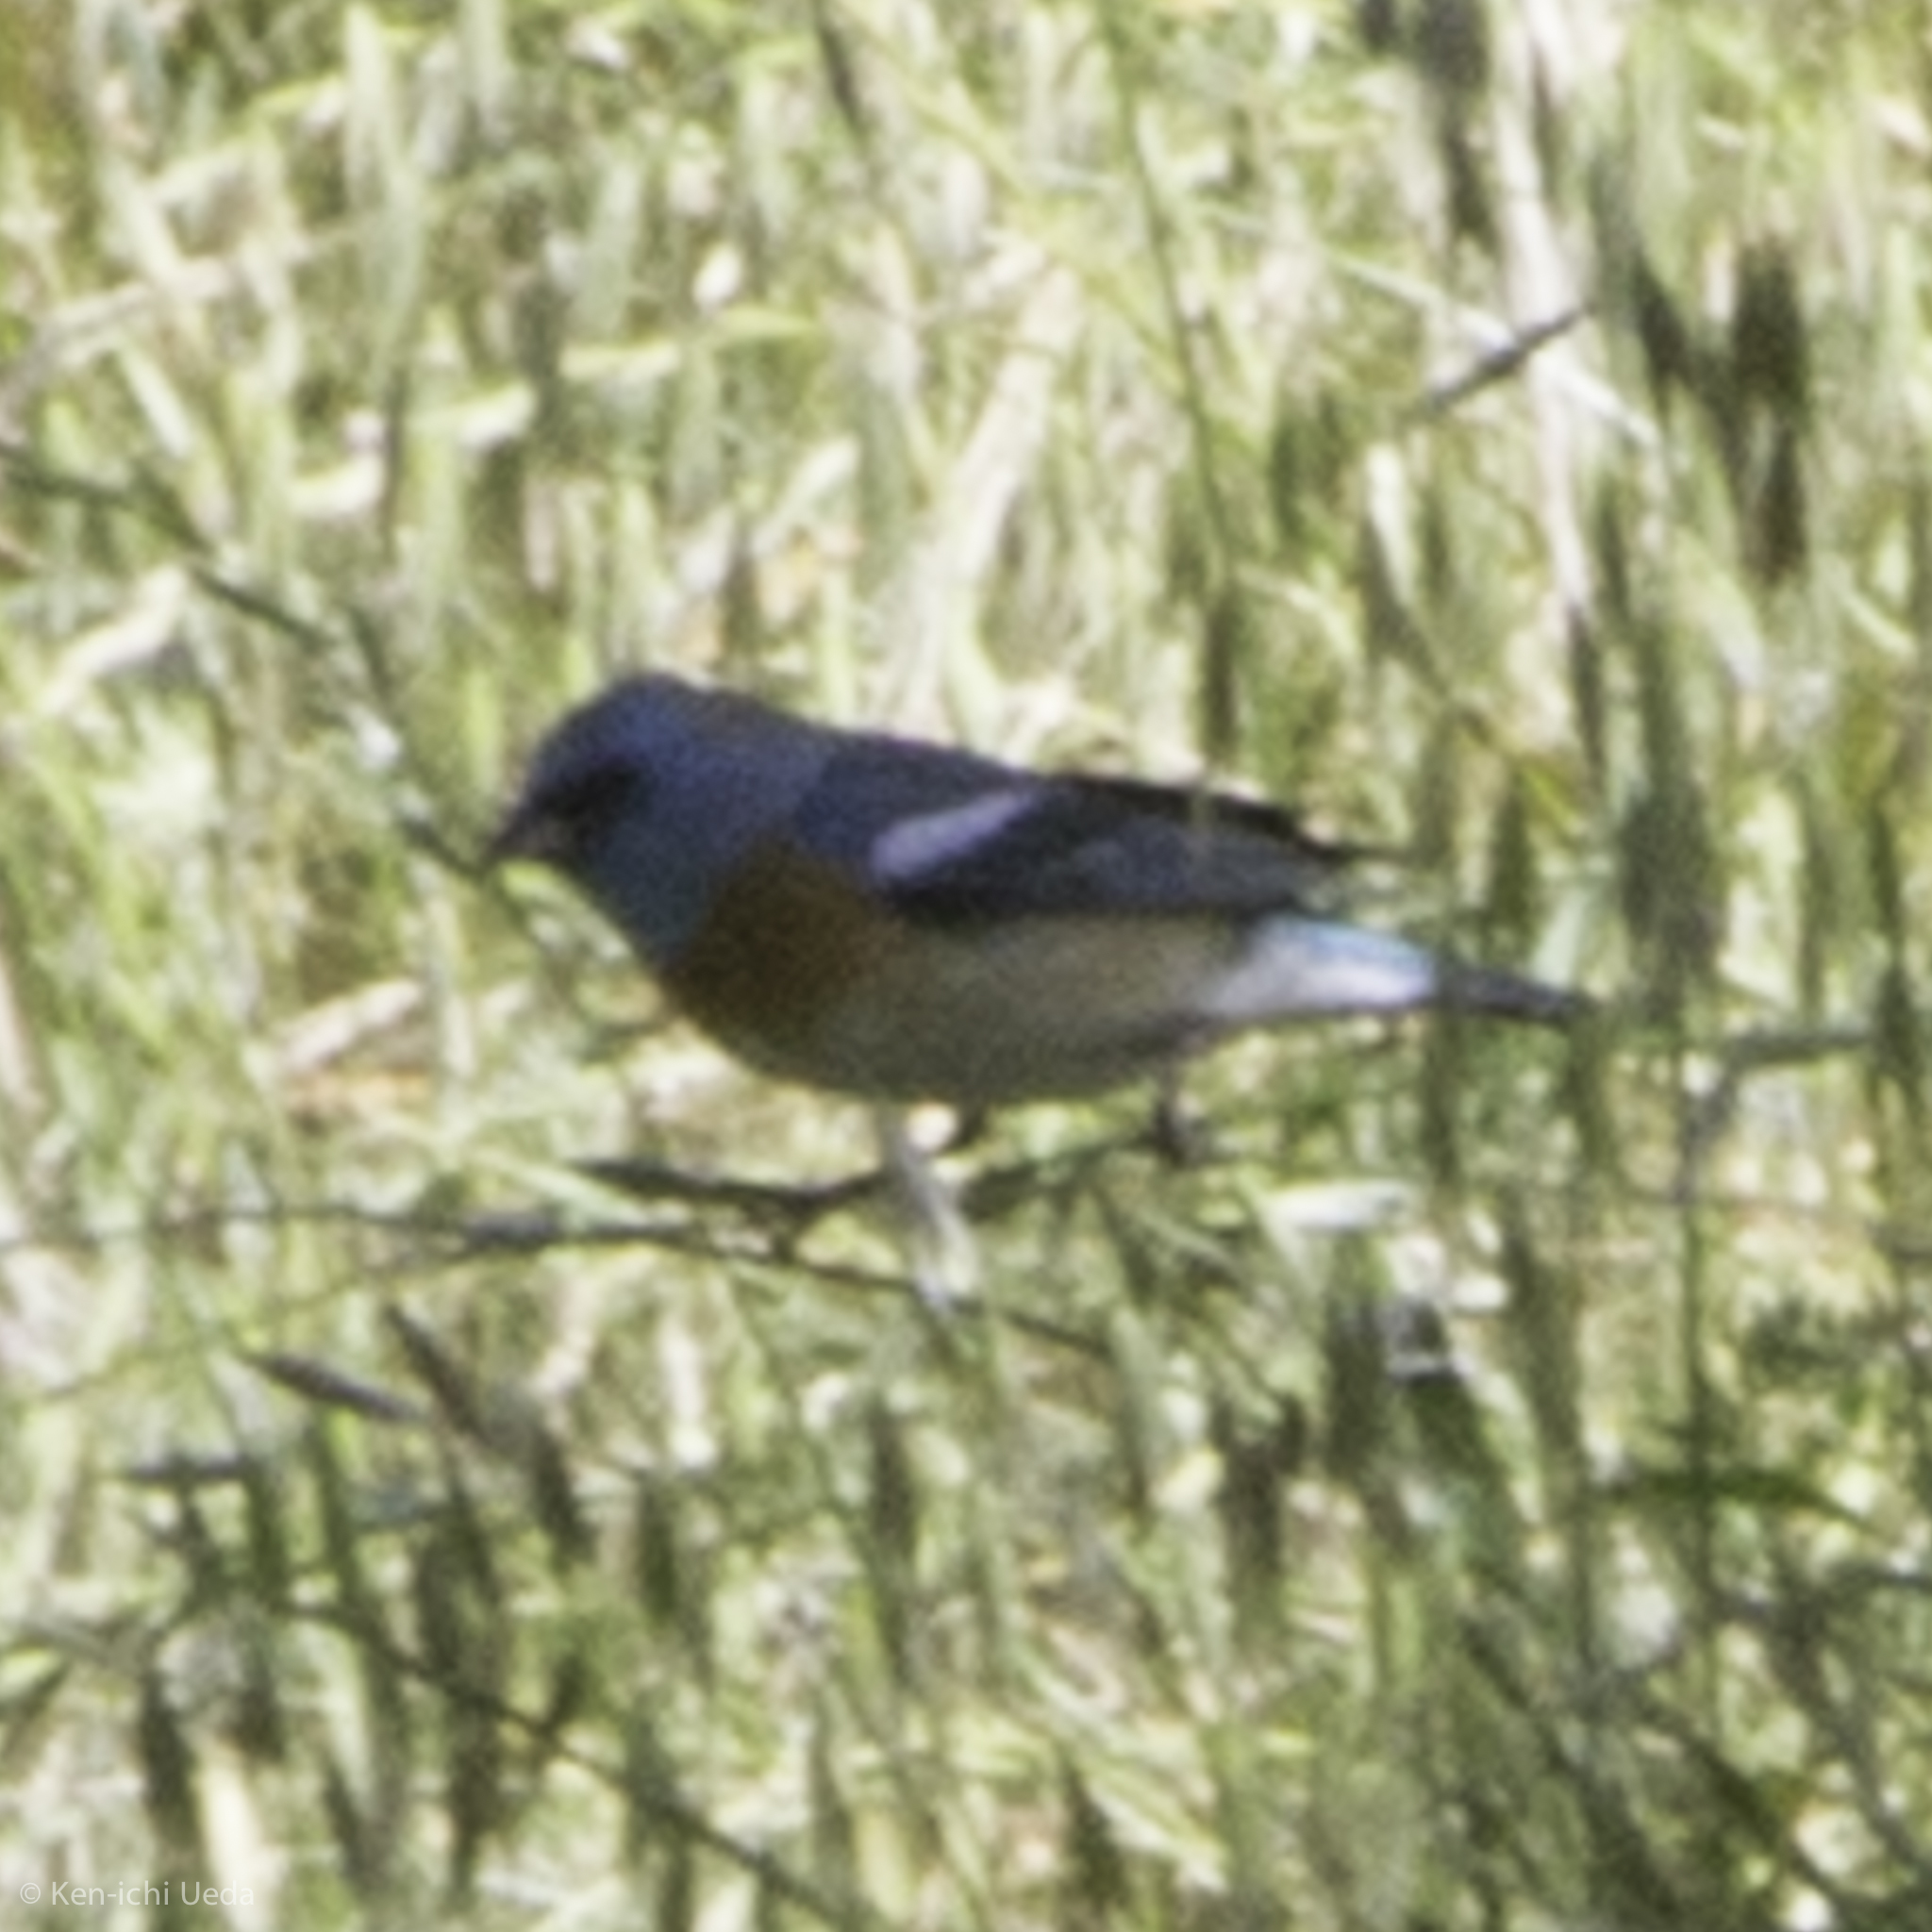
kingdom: Animalia
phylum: Chordata
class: Aves
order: Passeriformes
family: Cardinalidae
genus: Passerina
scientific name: Passerina amoena
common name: Lazuli bunting
